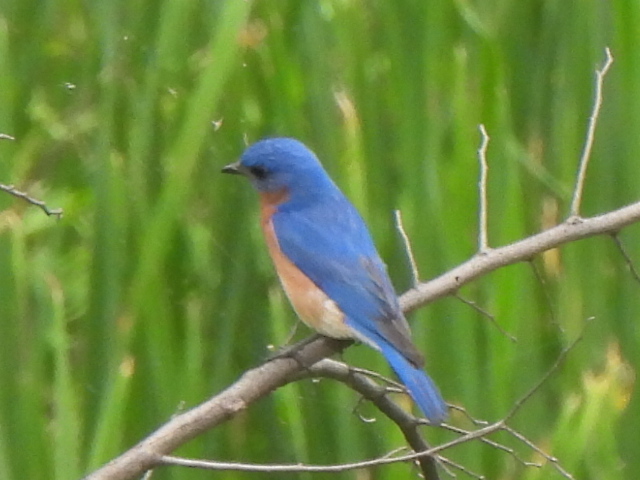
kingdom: Animalia
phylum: Chordata
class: Aves
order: Passeriformes
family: Turdidae
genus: Sialia
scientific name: Sialia sialis
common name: Eastern bluebird
